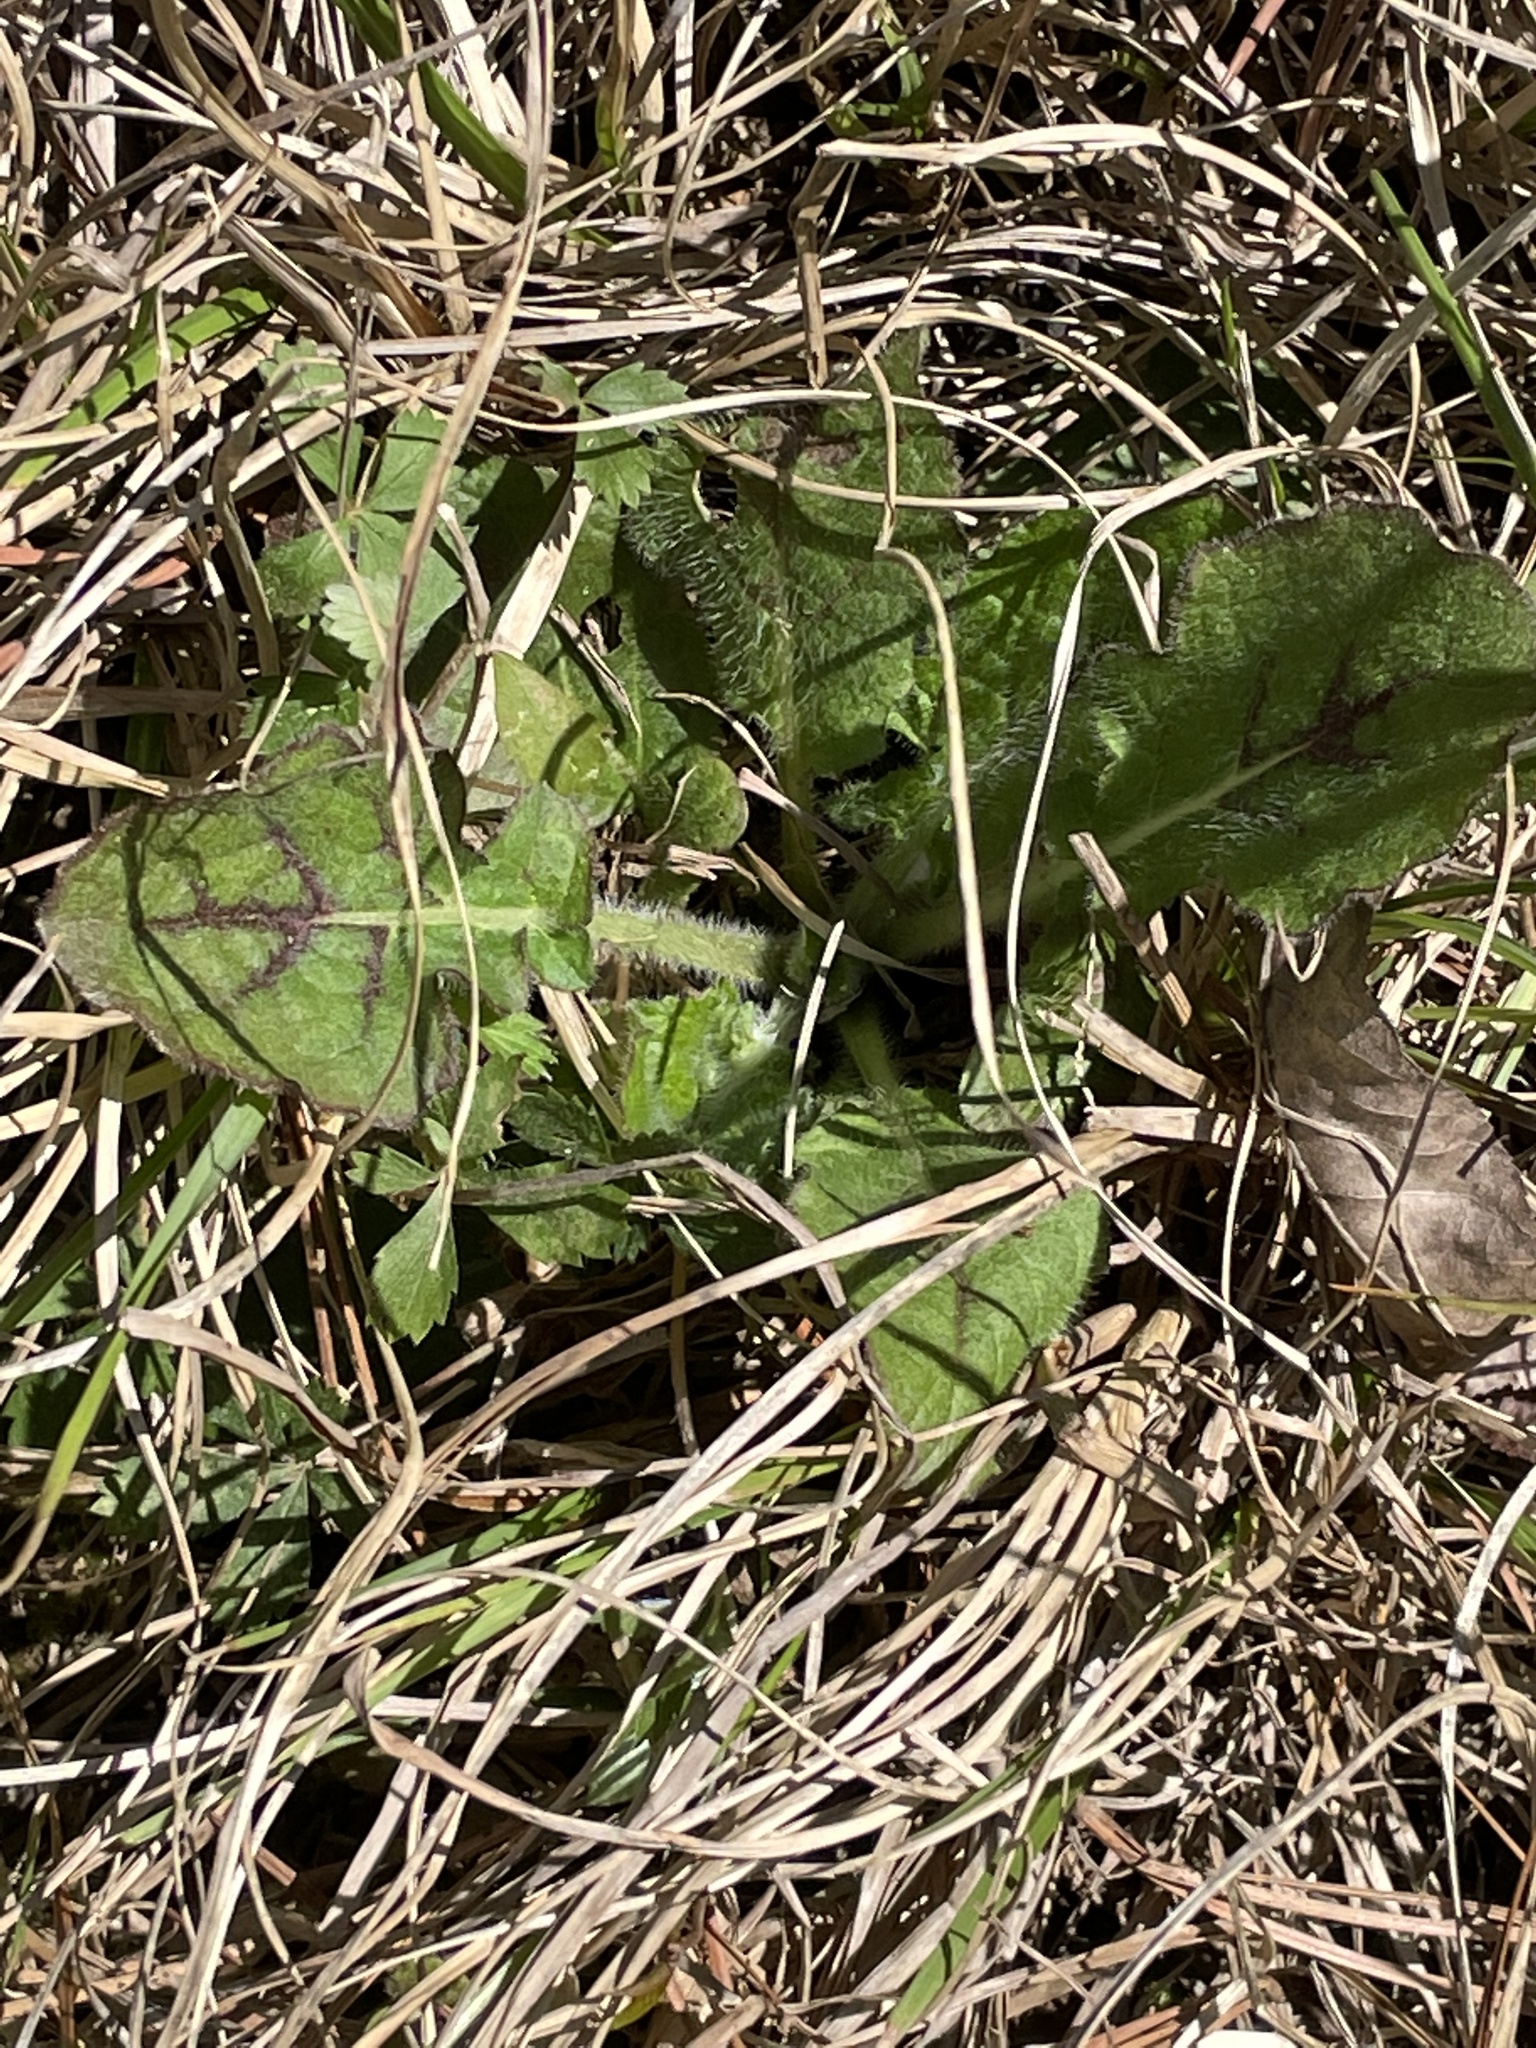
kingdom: Plantae
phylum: Tracheophyta
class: Magnoliopsida
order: Lamiales
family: Lamiaceae
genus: Salvia
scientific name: Salvia lyrata
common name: Cancerweed
